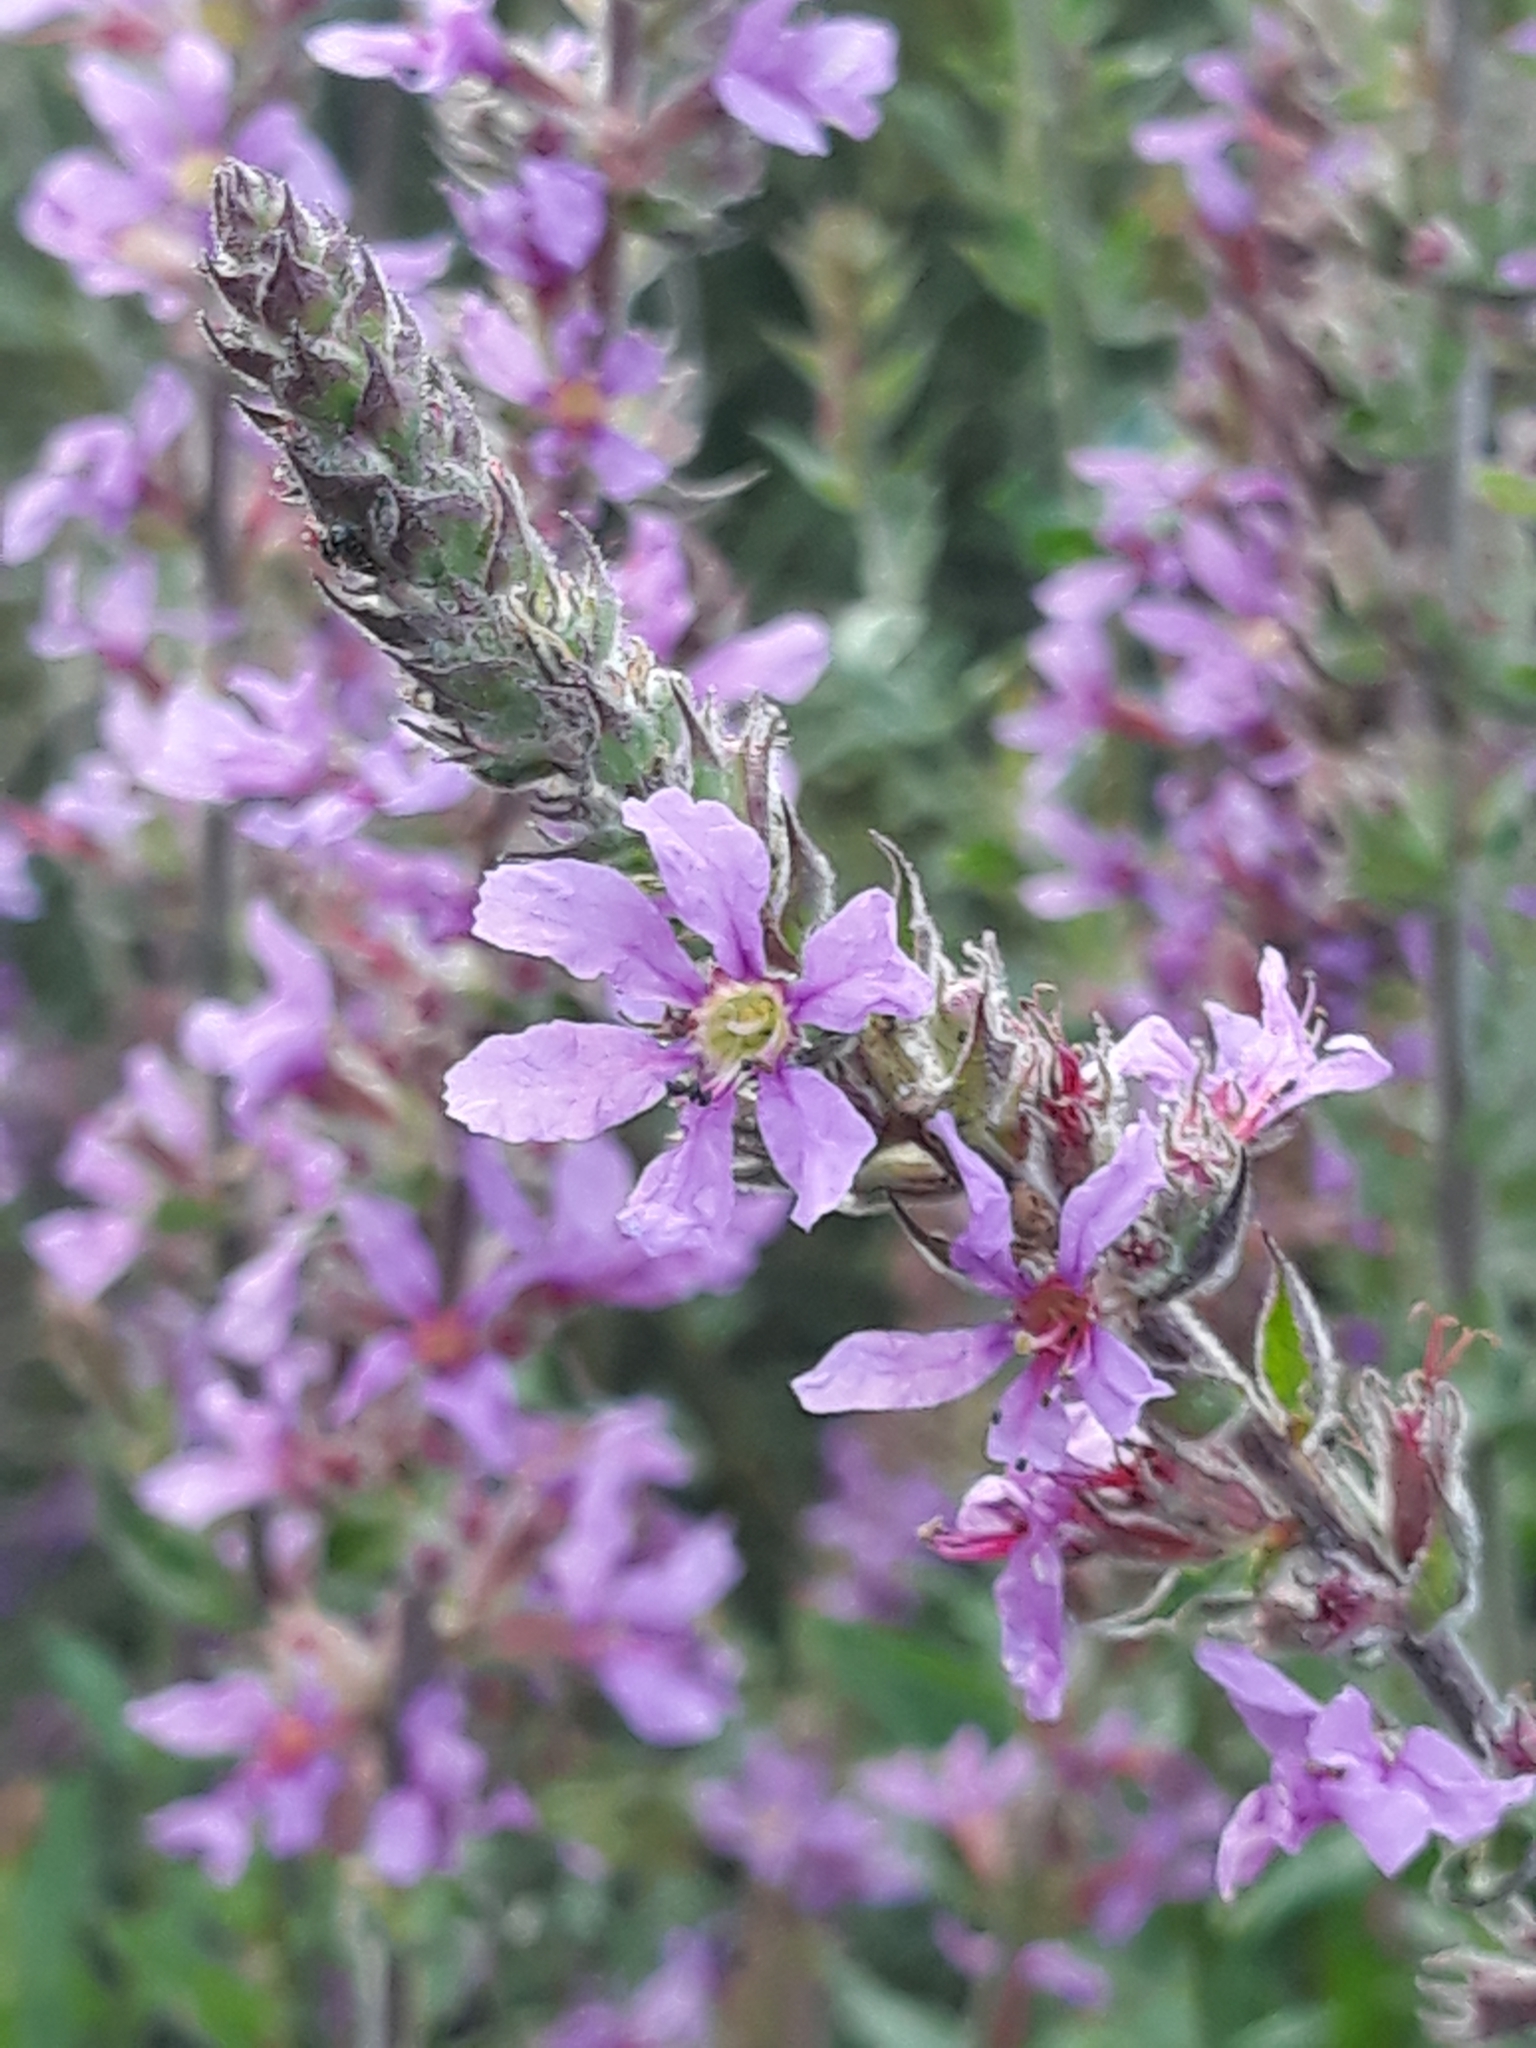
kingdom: Plantae
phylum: Tracheophyta
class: Magnoliopsida
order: Myrtales
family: Lythraceae
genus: Lythrum
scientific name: Lythrum salicaria
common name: Purple loosestrife
